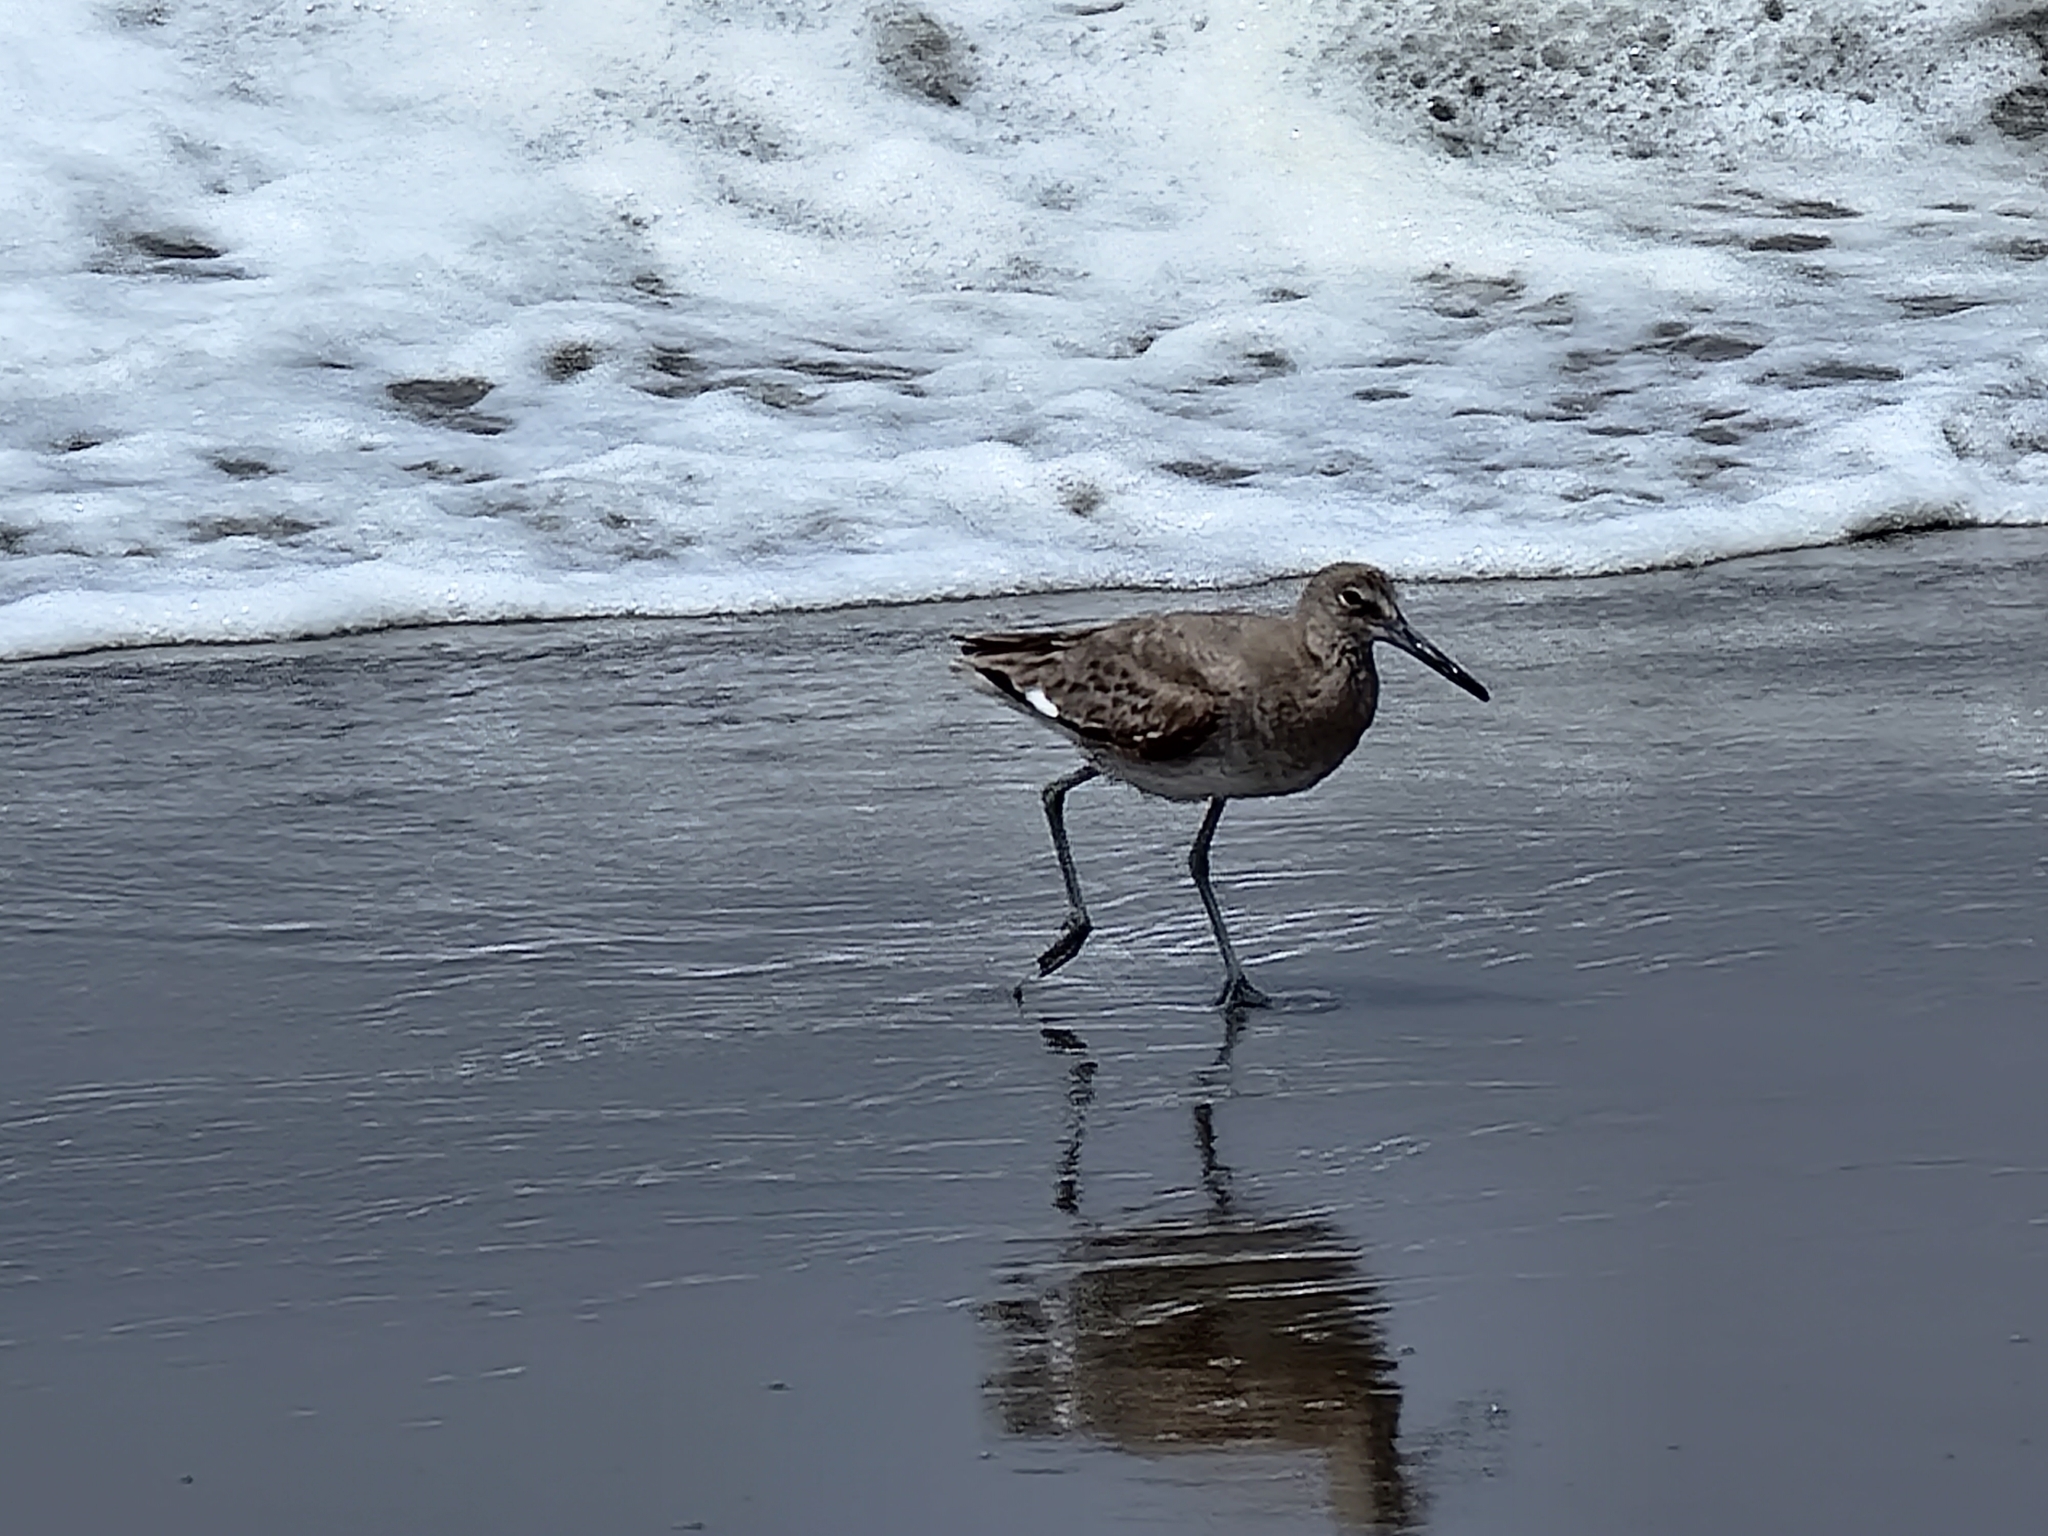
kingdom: Animalia
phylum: Chordata
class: Aves
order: Charadriiformes
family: Scolopacidae
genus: Tringa
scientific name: Tringa semipalmata
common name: Willet
